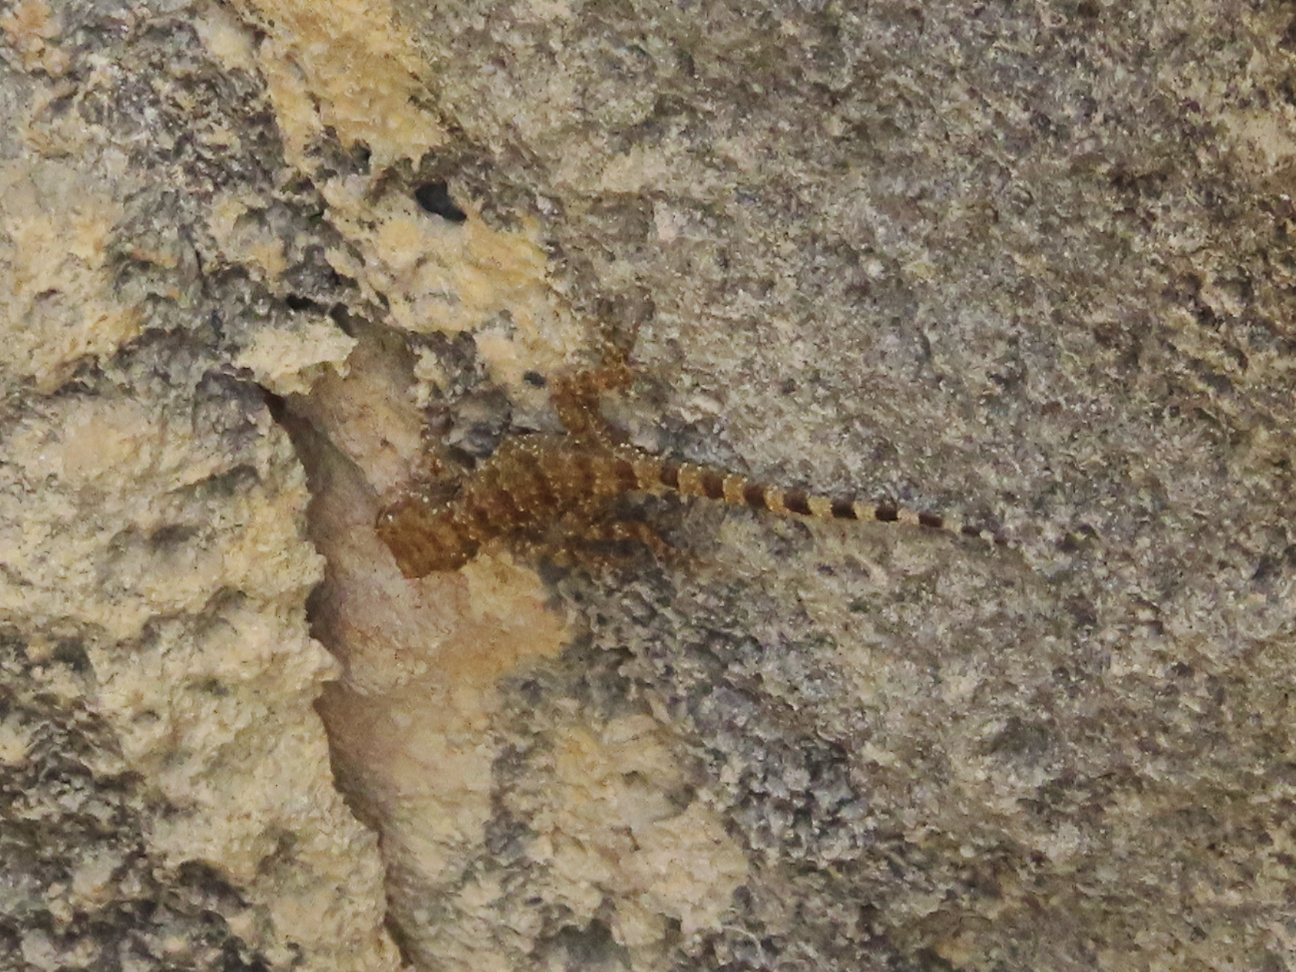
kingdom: Animalia
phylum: Chordata
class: Squamata
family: Gekkonidae
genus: Tenuidactylus
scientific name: Tenuidactylus caspius
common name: Caspian bent-toed gecko
